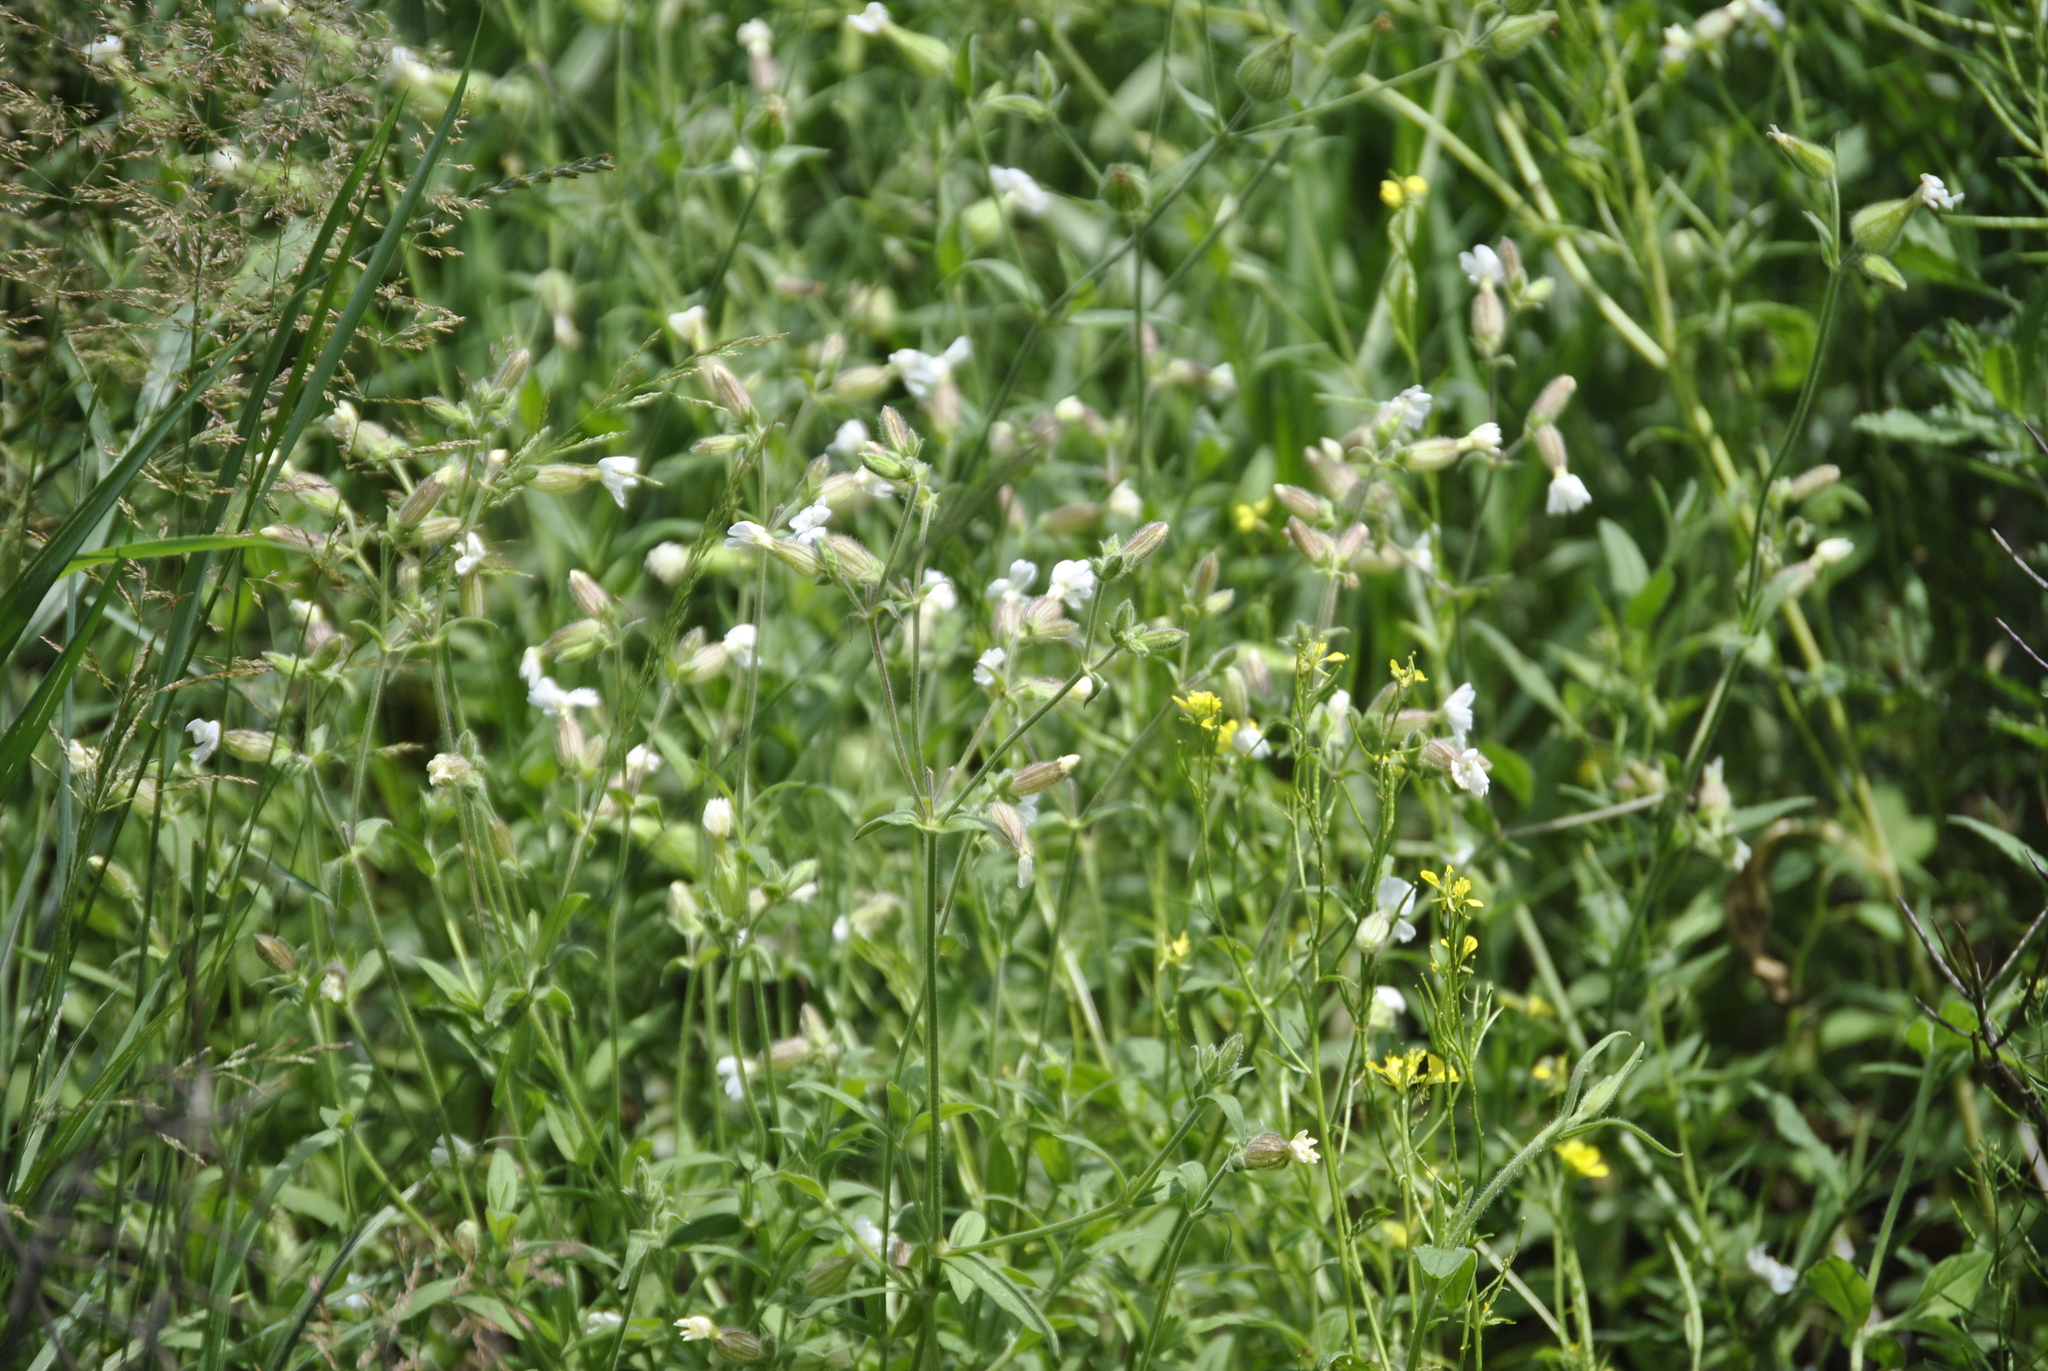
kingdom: Plantae
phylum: Tracheophyta
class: Magnoliopsida
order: Caryophyllales
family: Caryophyllaceae
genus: Silene
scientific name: Silene latifolia
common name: White campion
